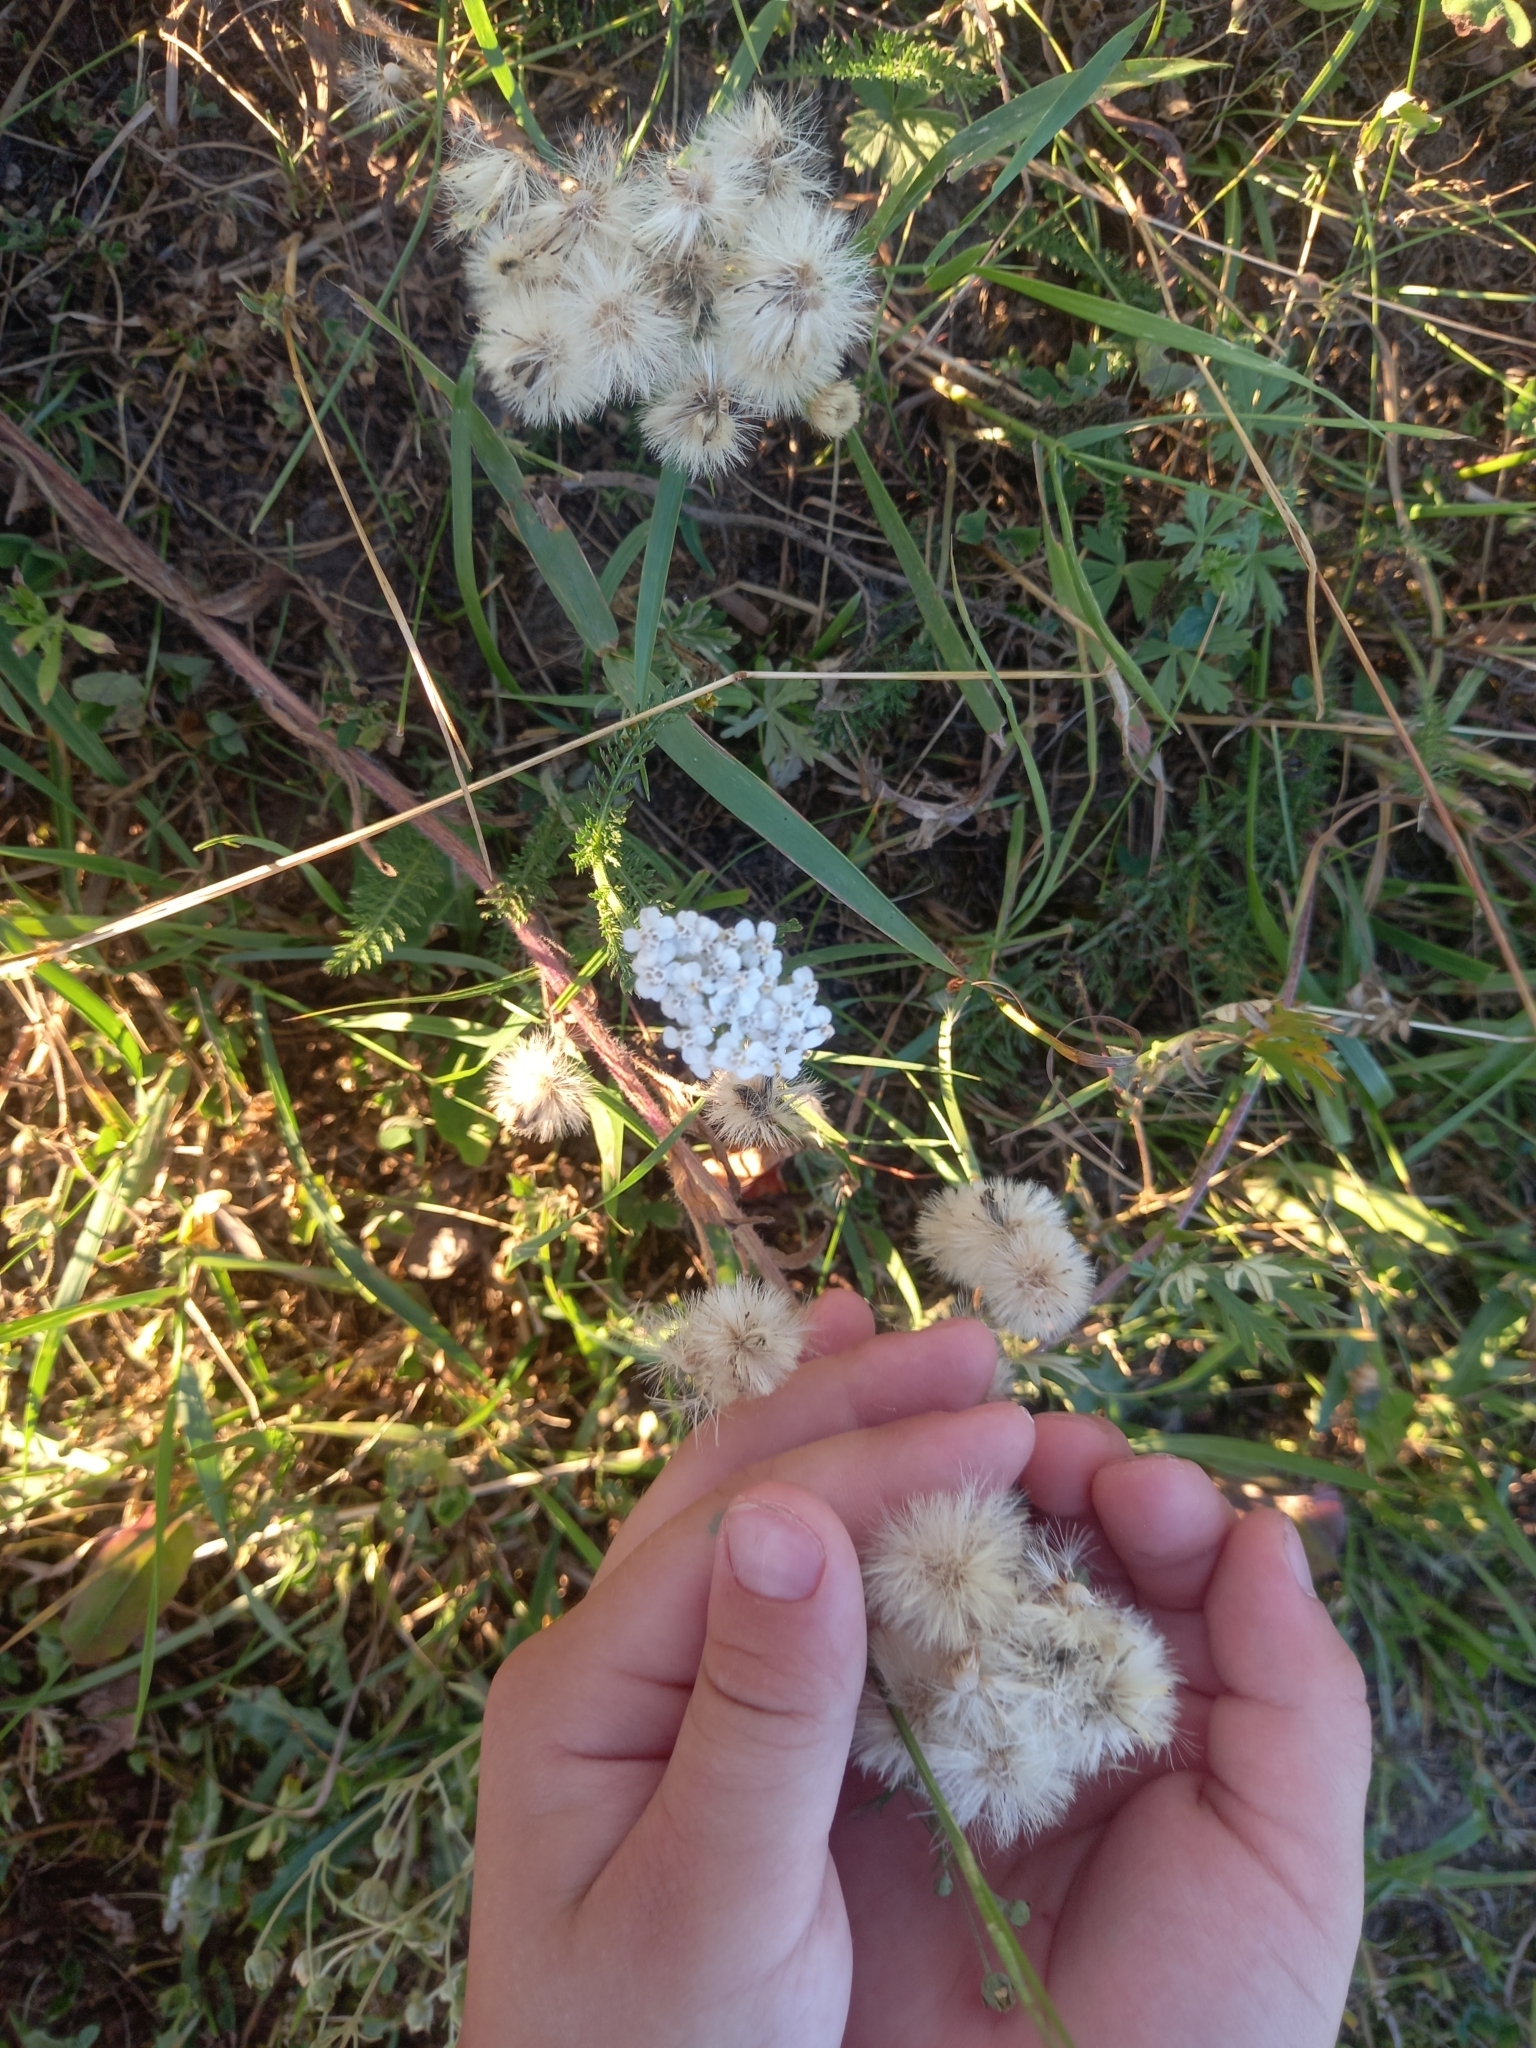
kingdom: Plantae
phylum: Tracheophyta
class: Magnoliopsida
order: Asterales
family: Asteraceae
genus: Erigeron
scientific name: Erigeron acris
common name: Blue fleabane
